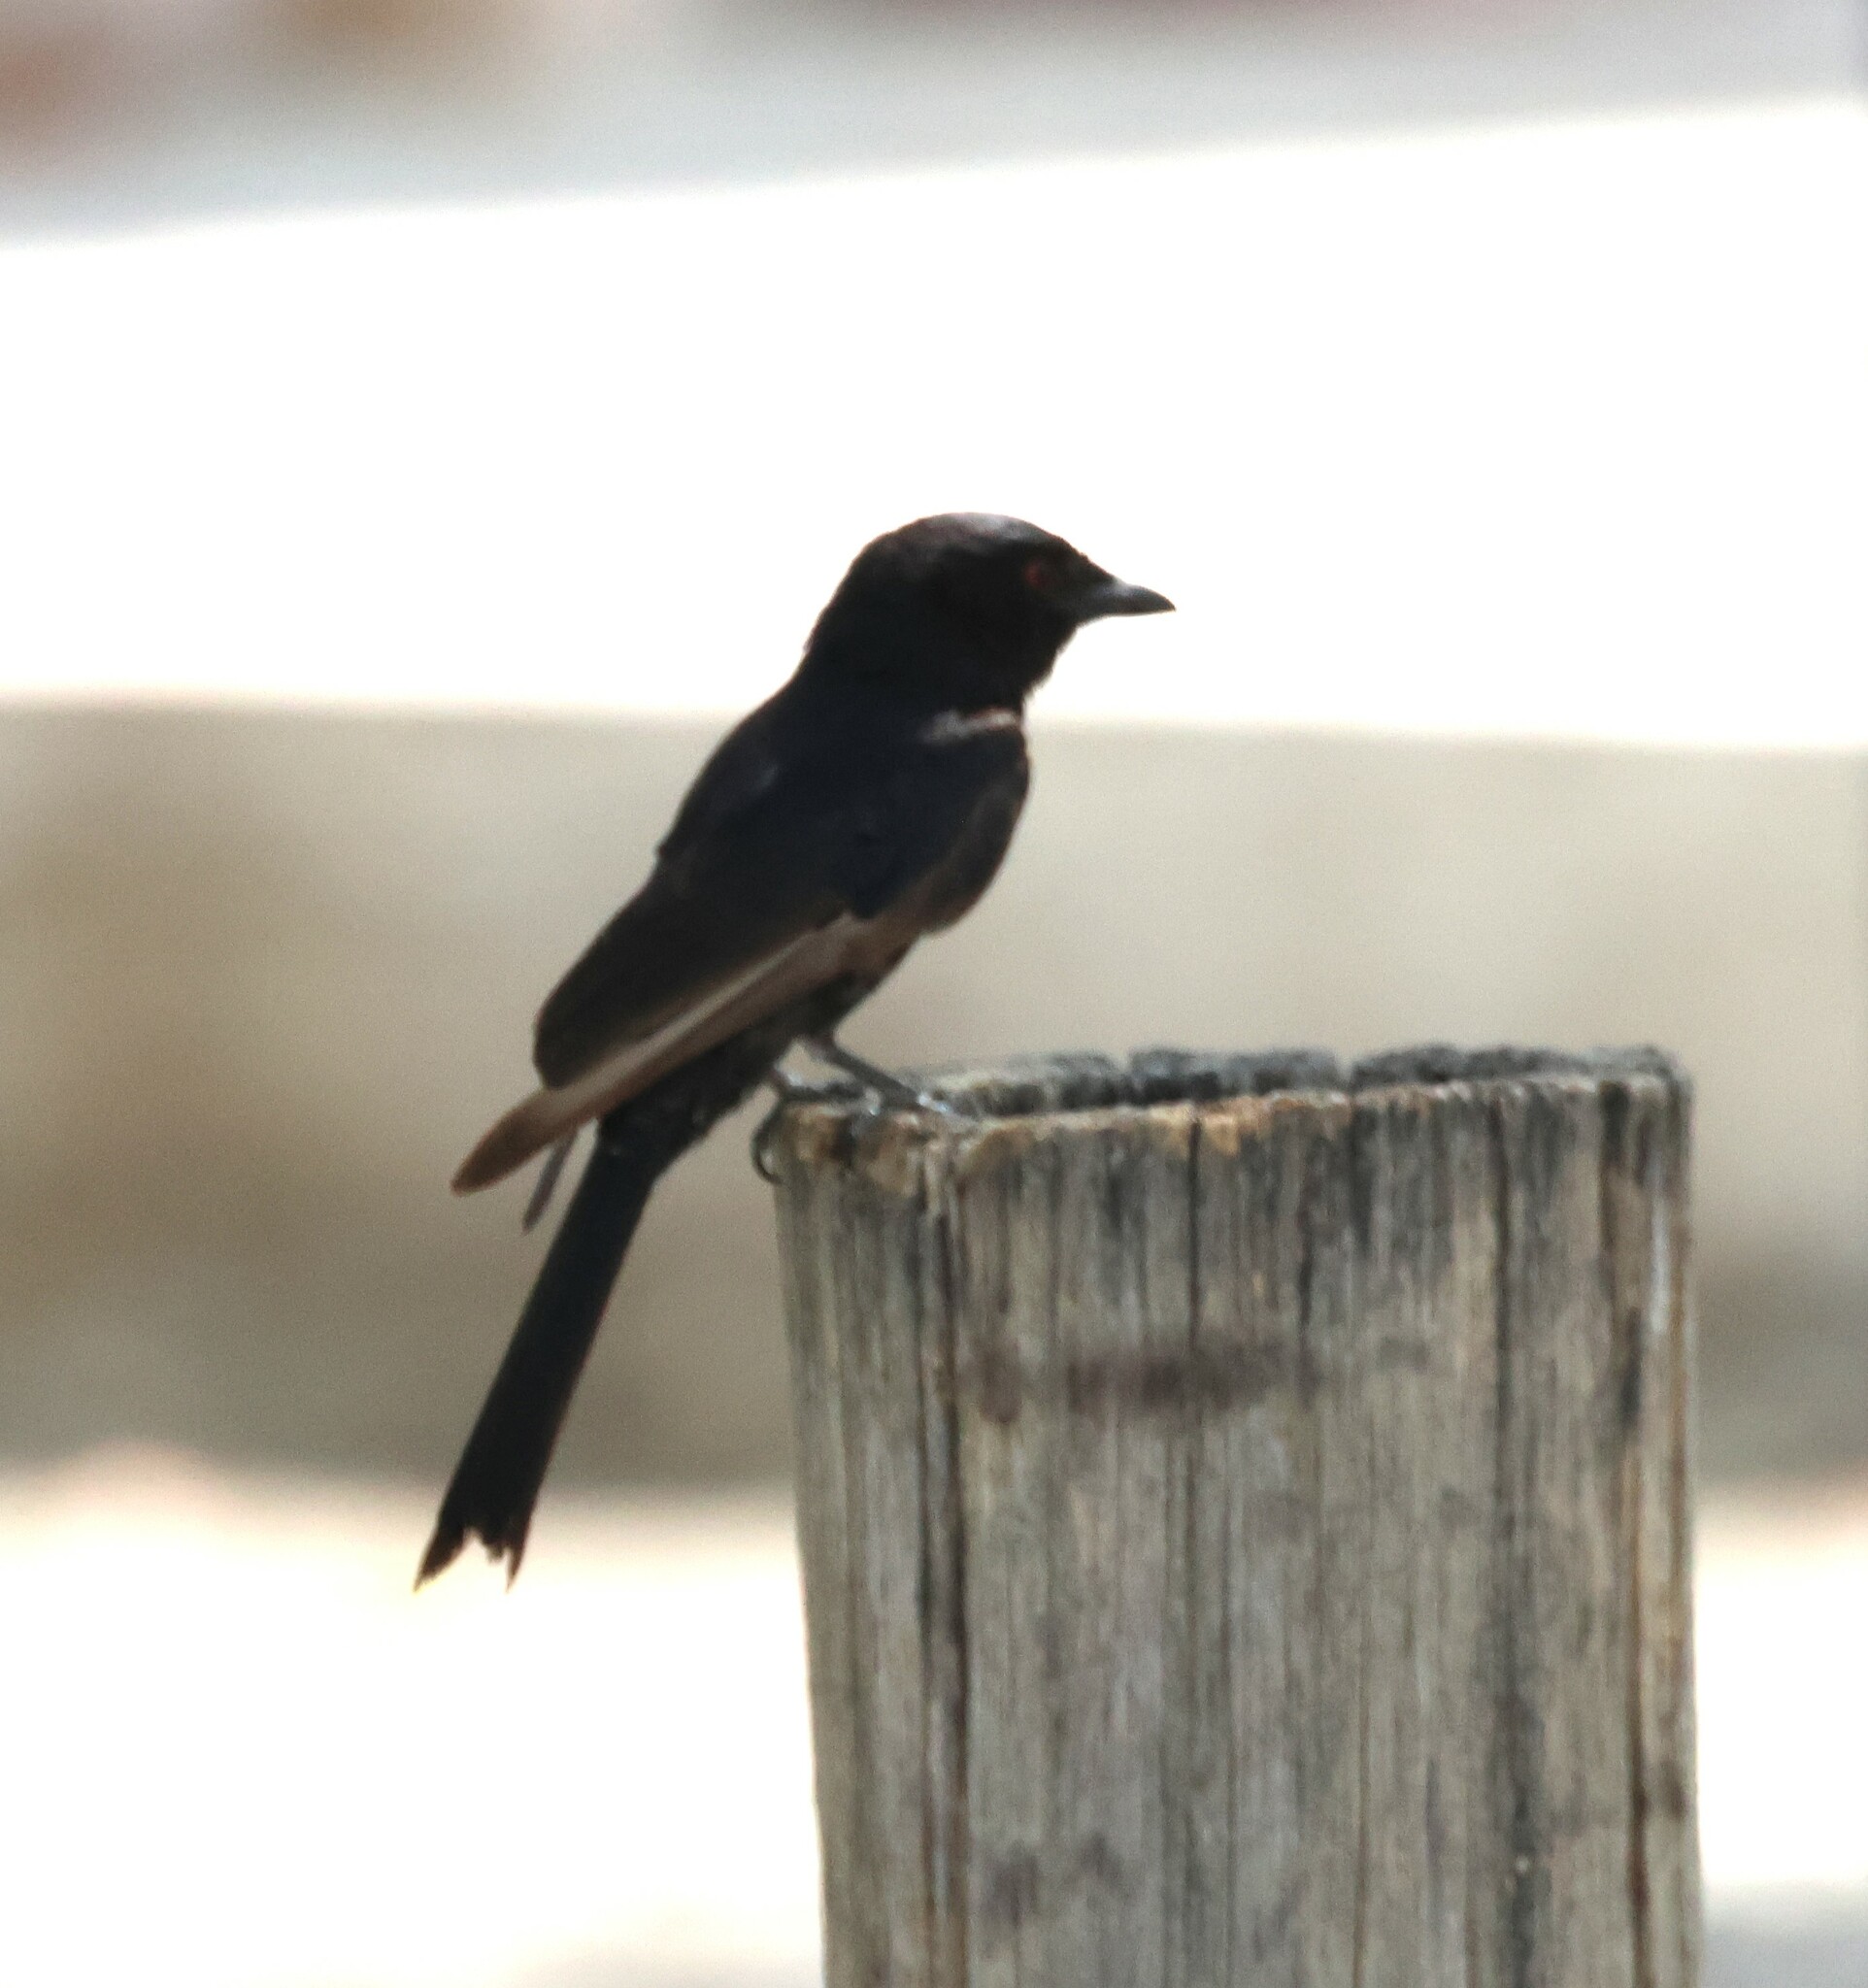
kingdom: Animalia
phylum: Chordata
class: Aves
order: Passeriformes
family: Dicruridae
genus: Dicrurus
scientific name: Dicrurus adsimilis
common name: Fork-tailed drongo
